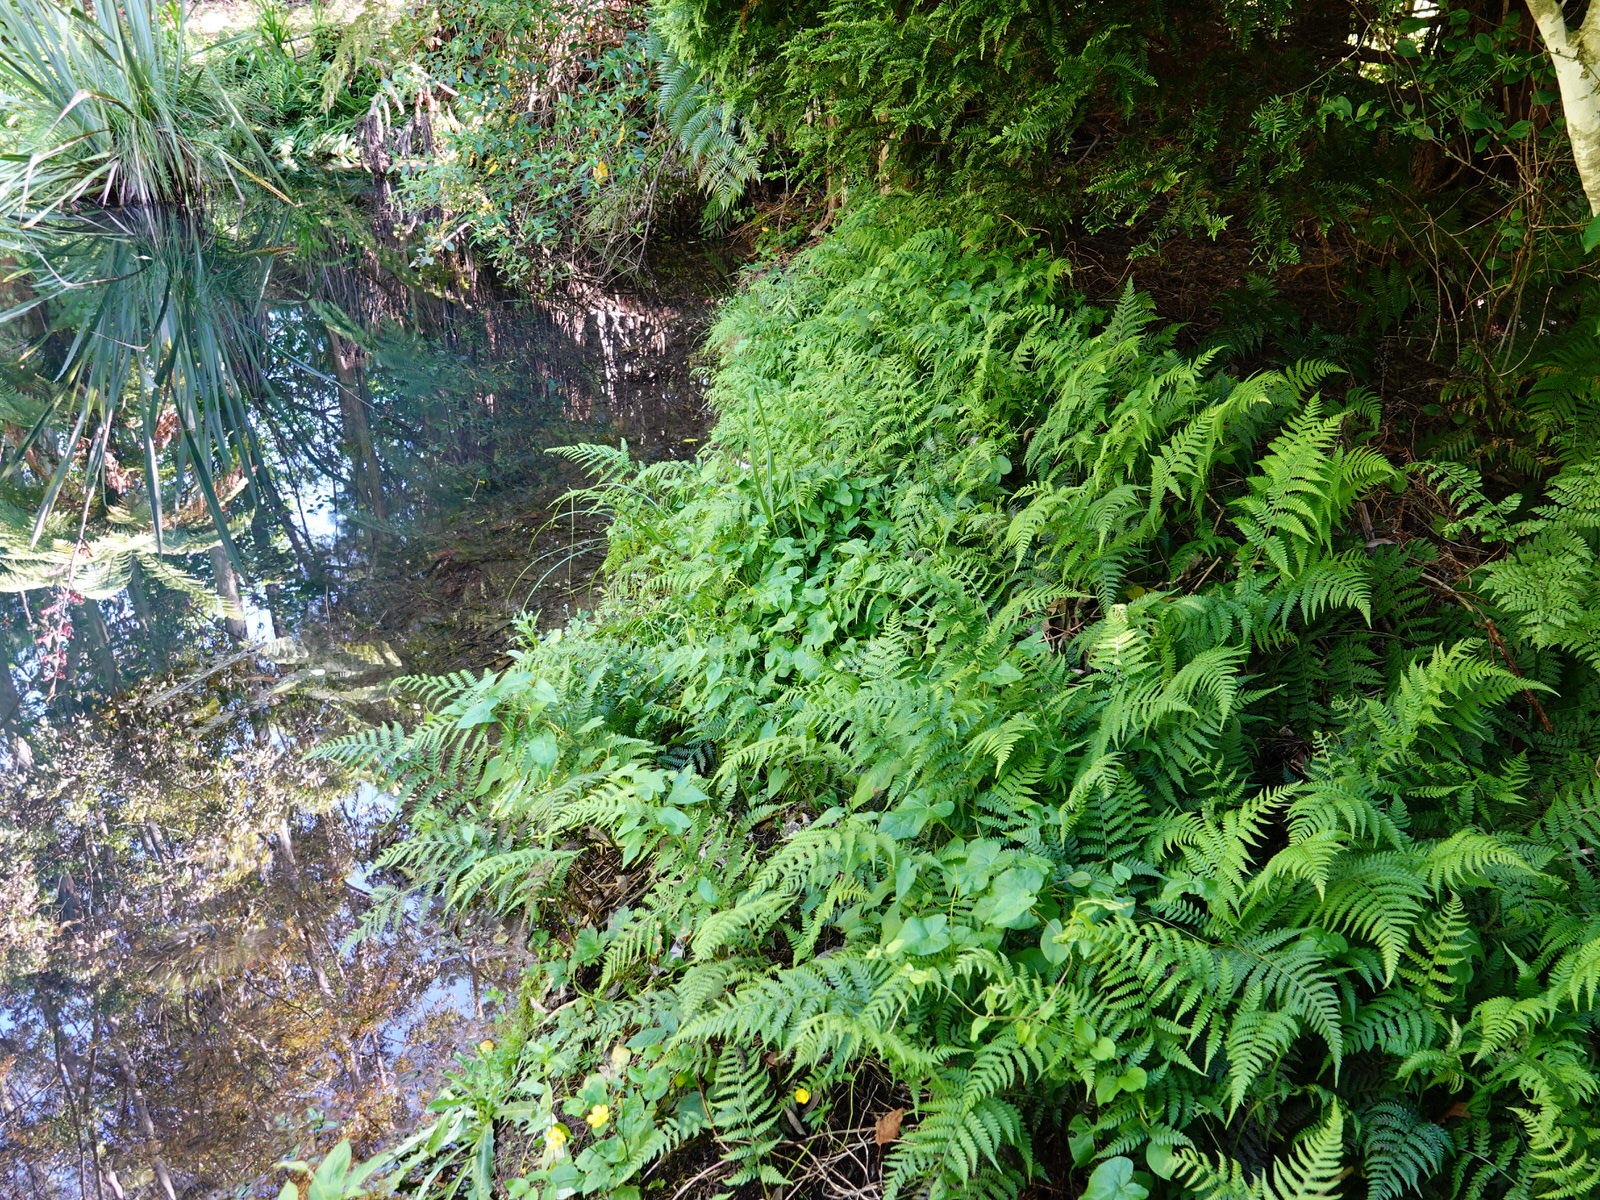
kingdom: Plantae
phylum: Tracheophyta
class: Polypodiopsida
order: Polypodiales
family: Athyriaceae
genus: Diplazium
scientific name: Diplazium congruum
